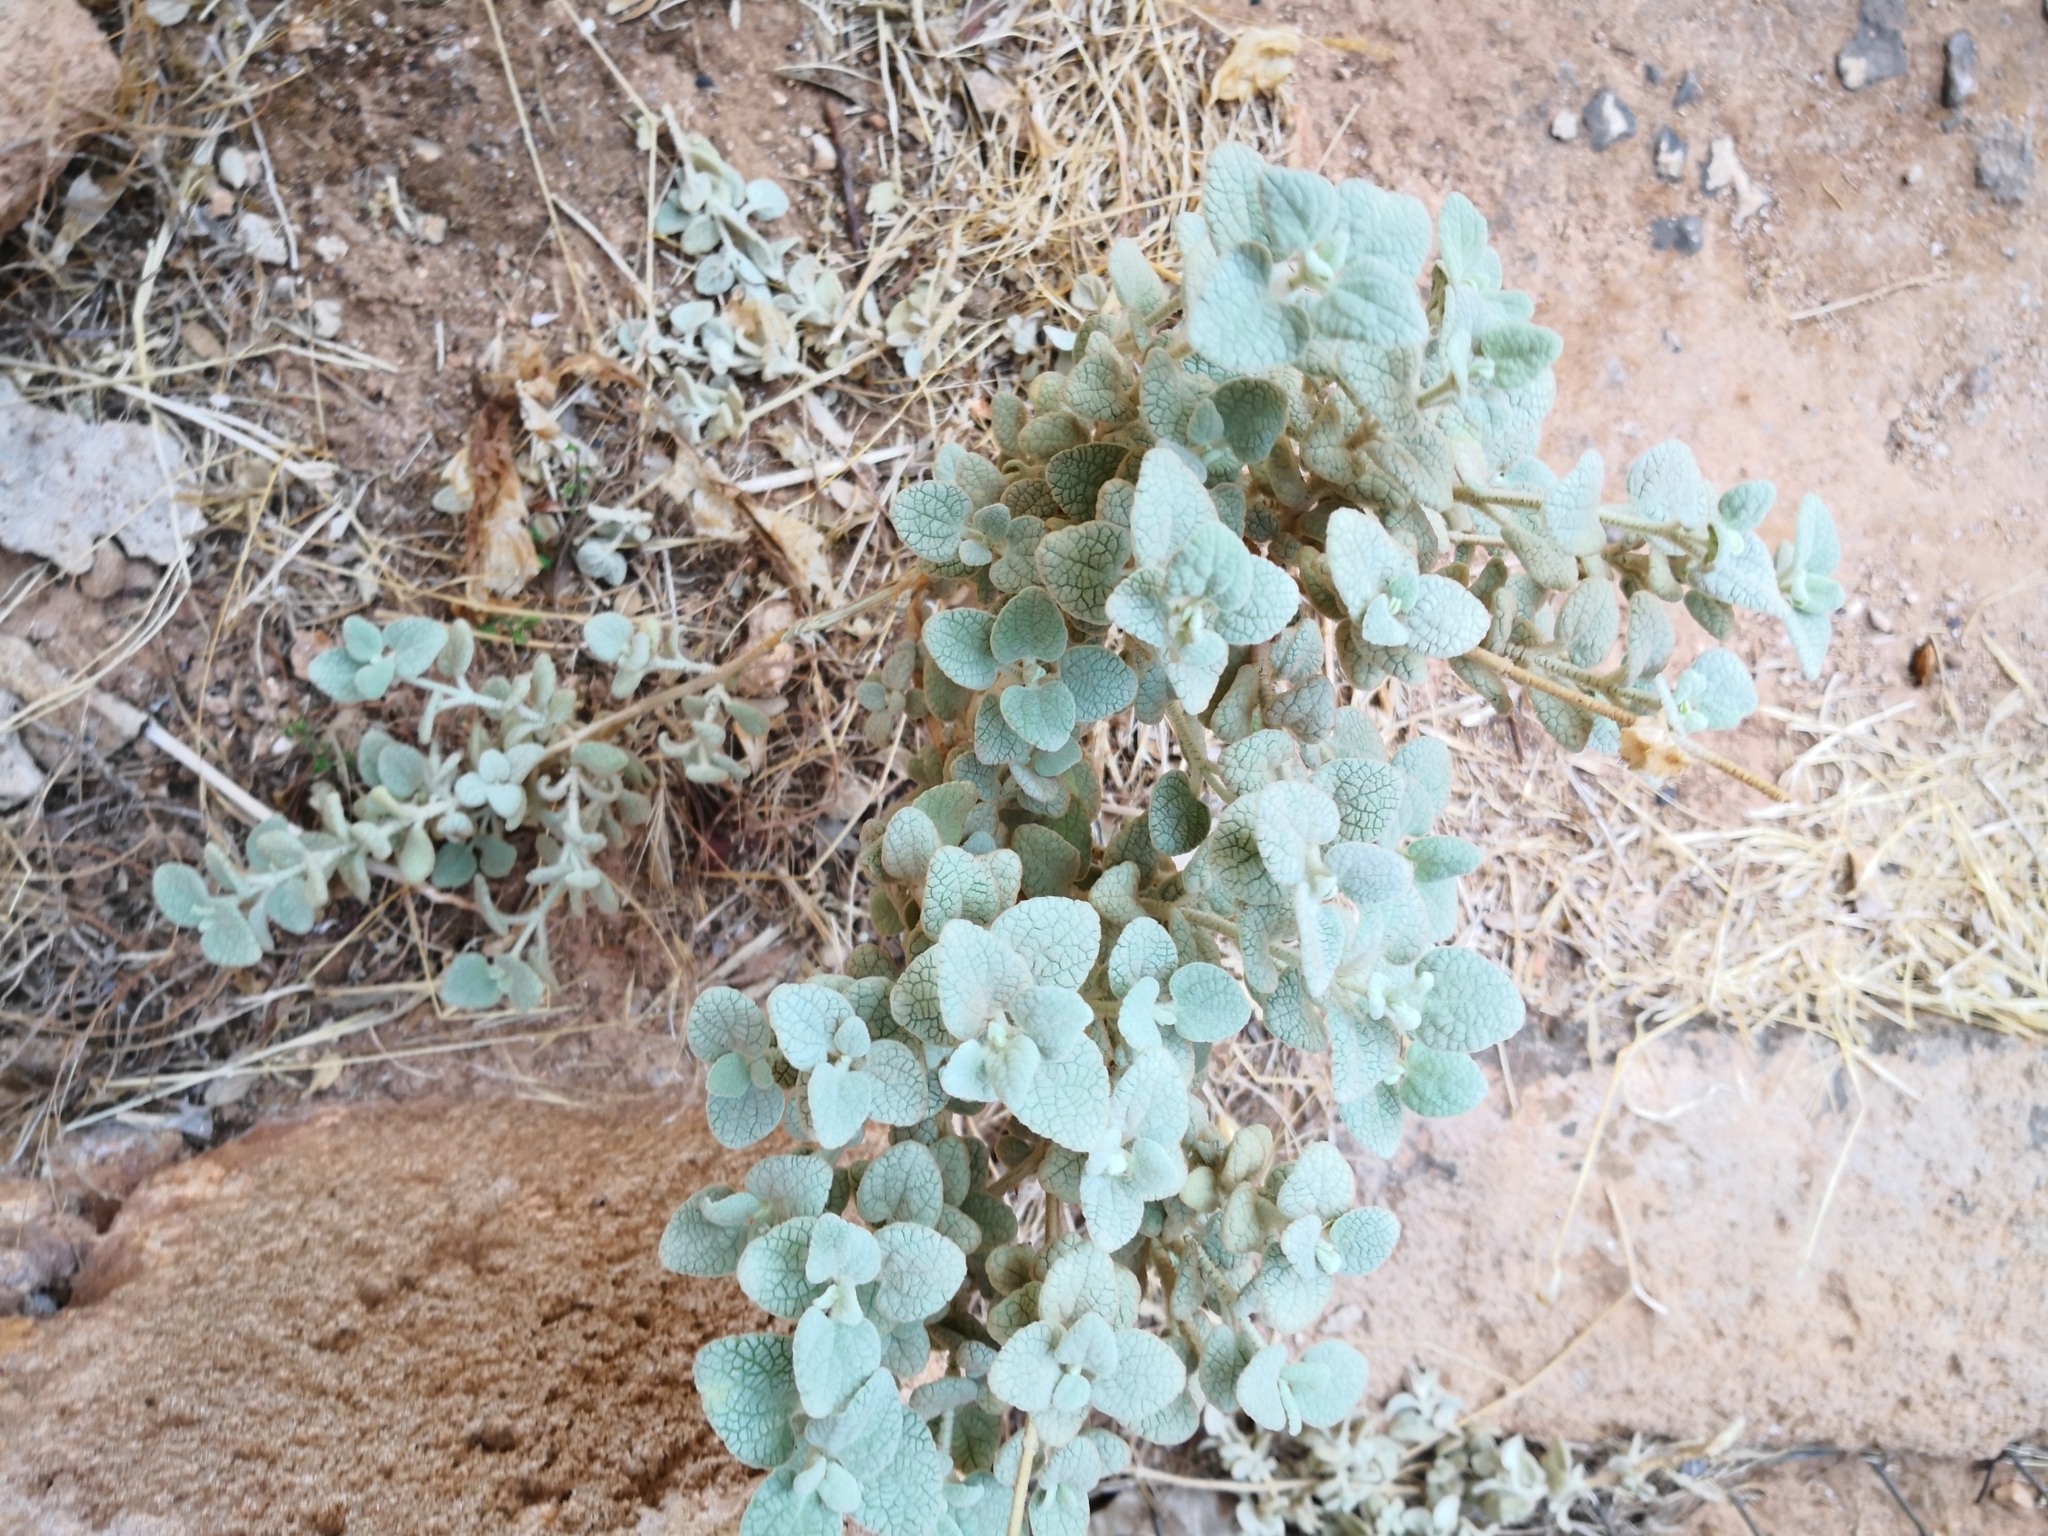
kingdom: Plantae
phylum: Tracheophyta
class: Magnoliopsida
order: Lamiales
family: Lamiaceae
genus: Pseudodictamnus
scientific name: Pseudodictamnus mediterraneus
